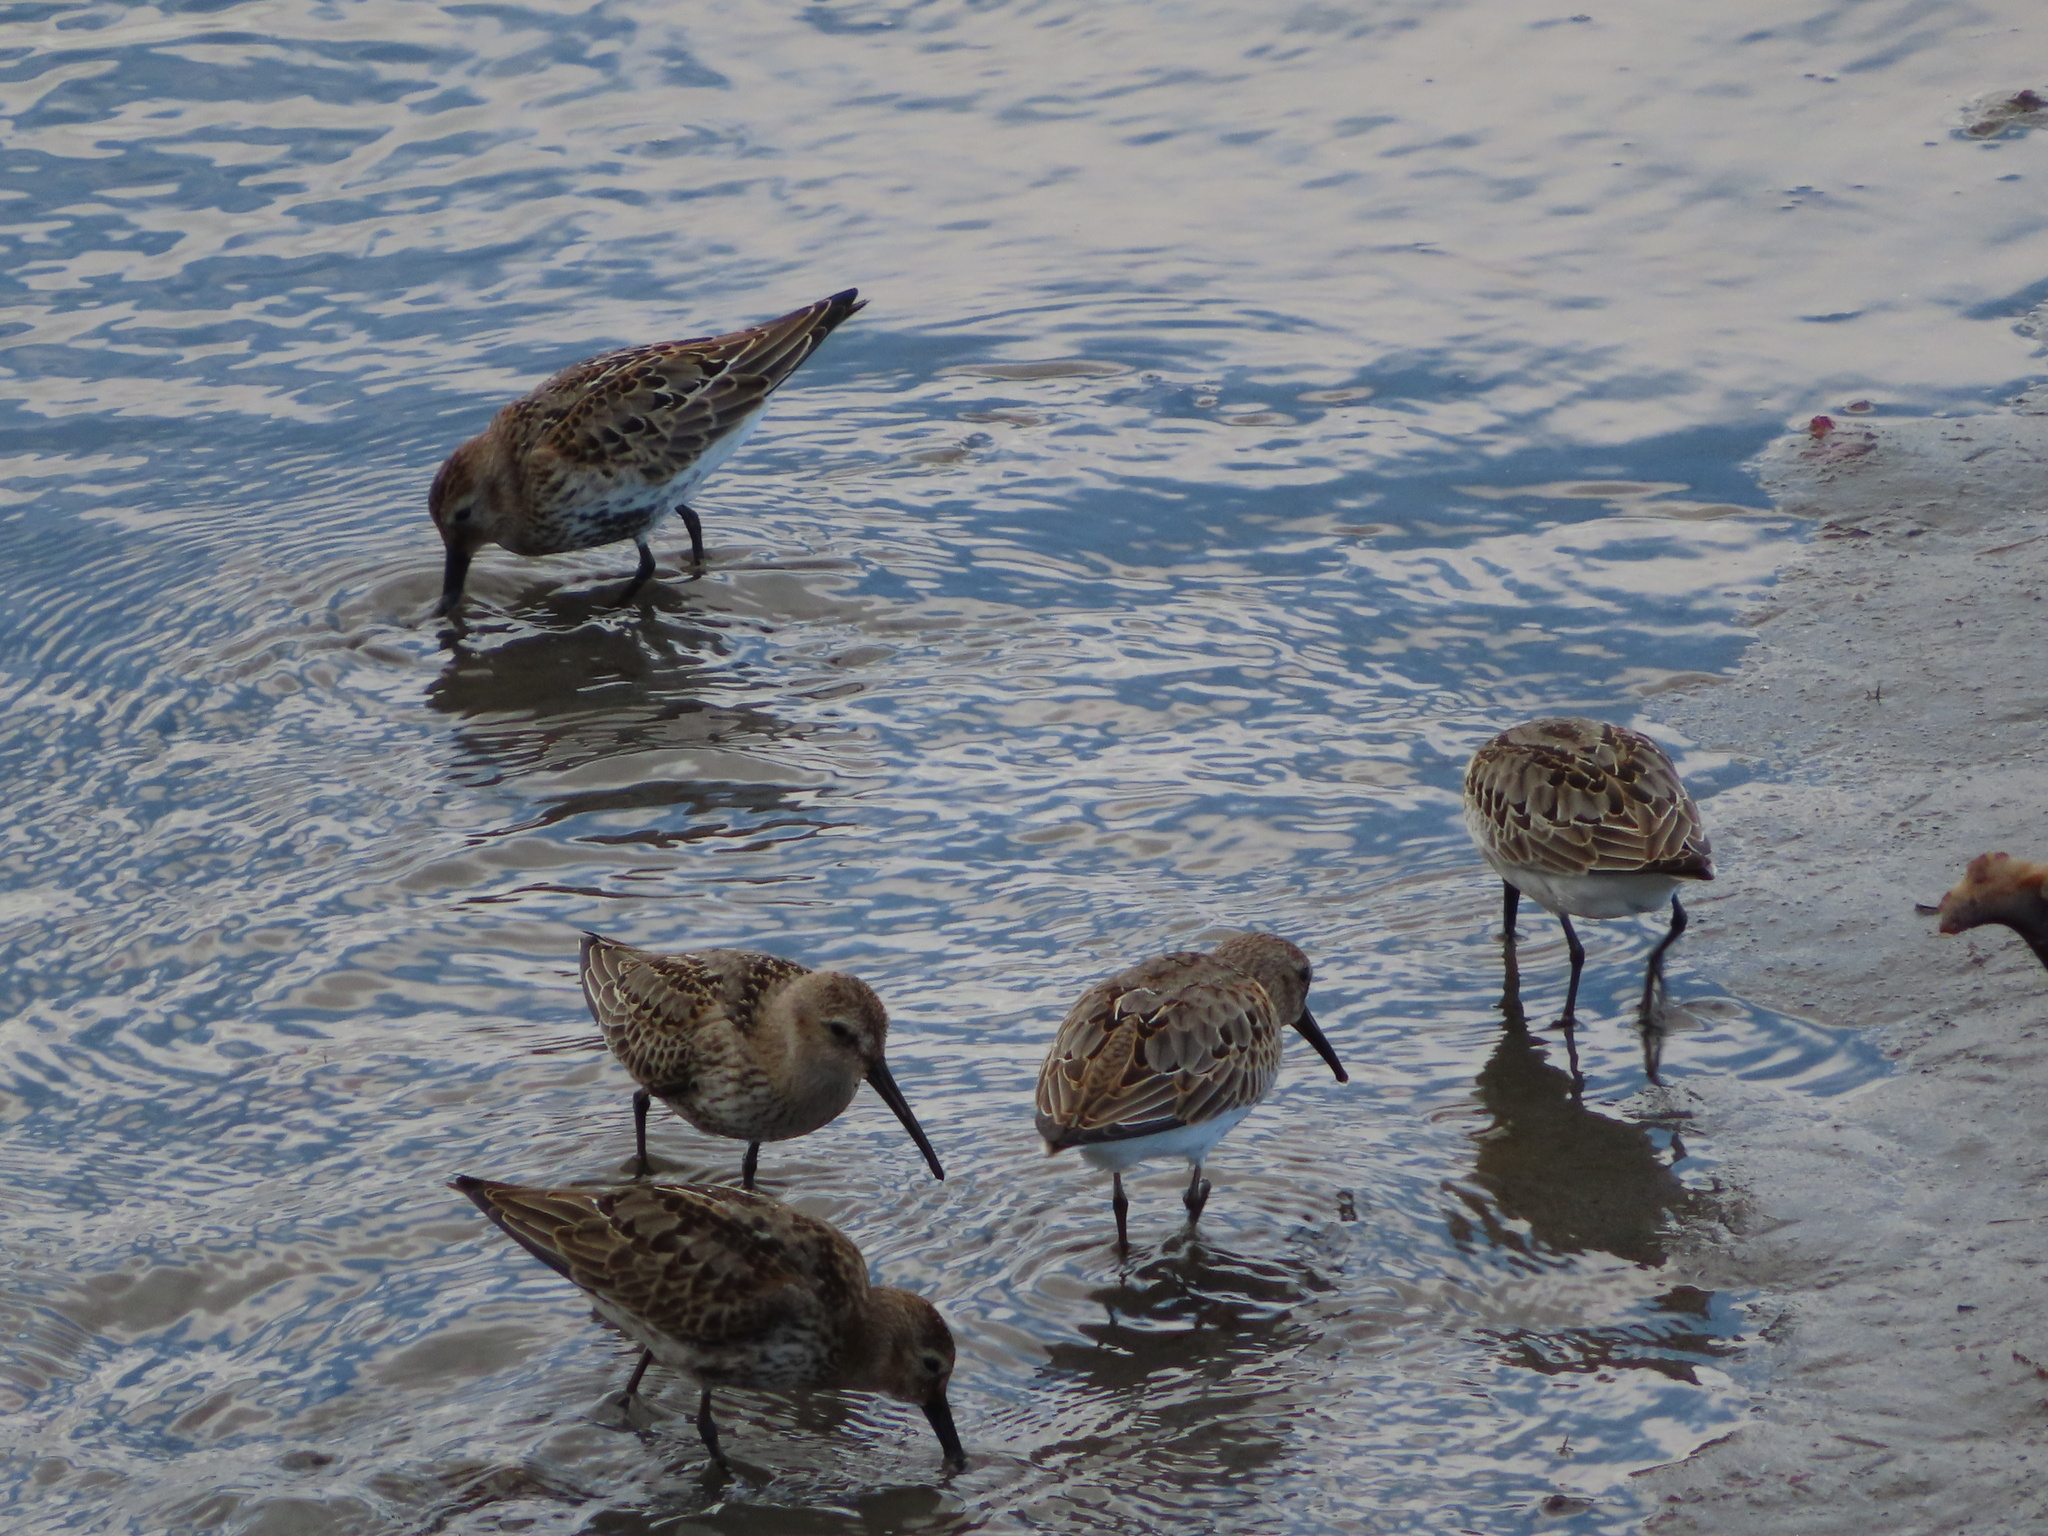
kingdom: Animalia
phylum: Chordata
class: Aves
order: Charadriiformes
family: Scolopacidae
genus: Calidris
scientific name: Calidris alpina
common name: Dunlin
